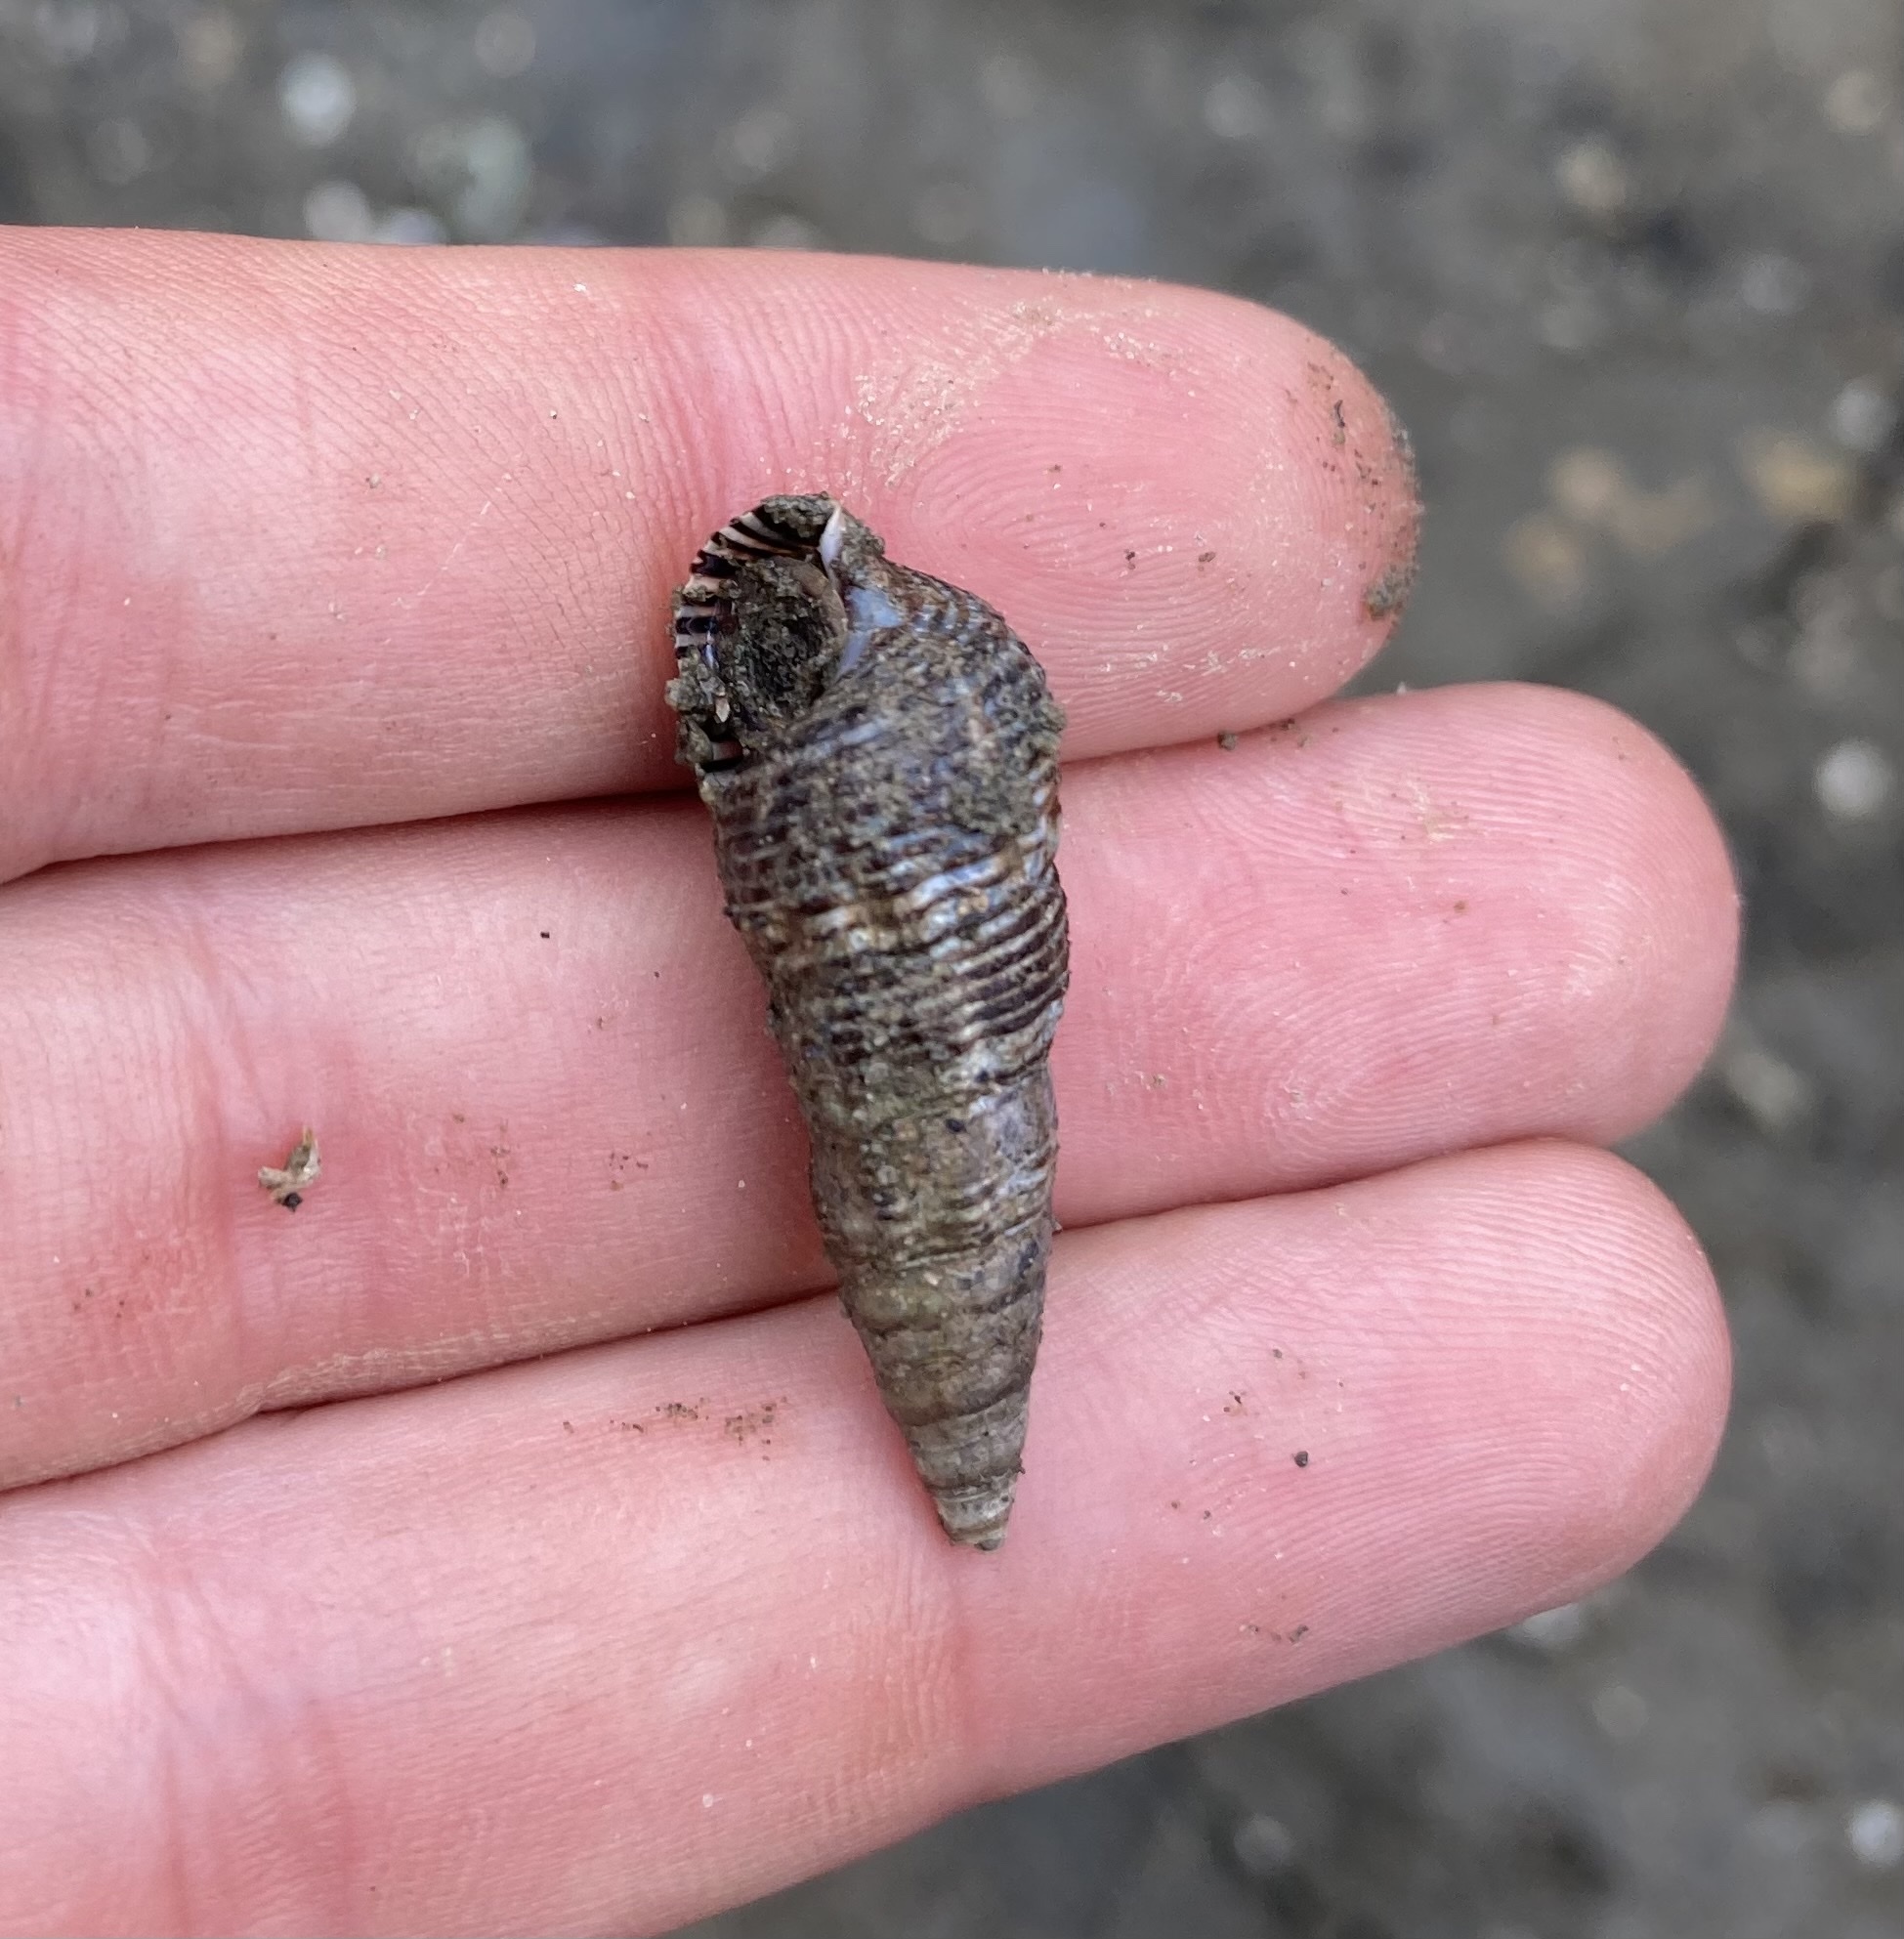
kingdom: Animalia
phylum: Mollusca
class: Gastropoda
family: Batillariidae
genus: Batillaria
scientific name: Batillaria attramentaria
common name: Japanese false cerith
